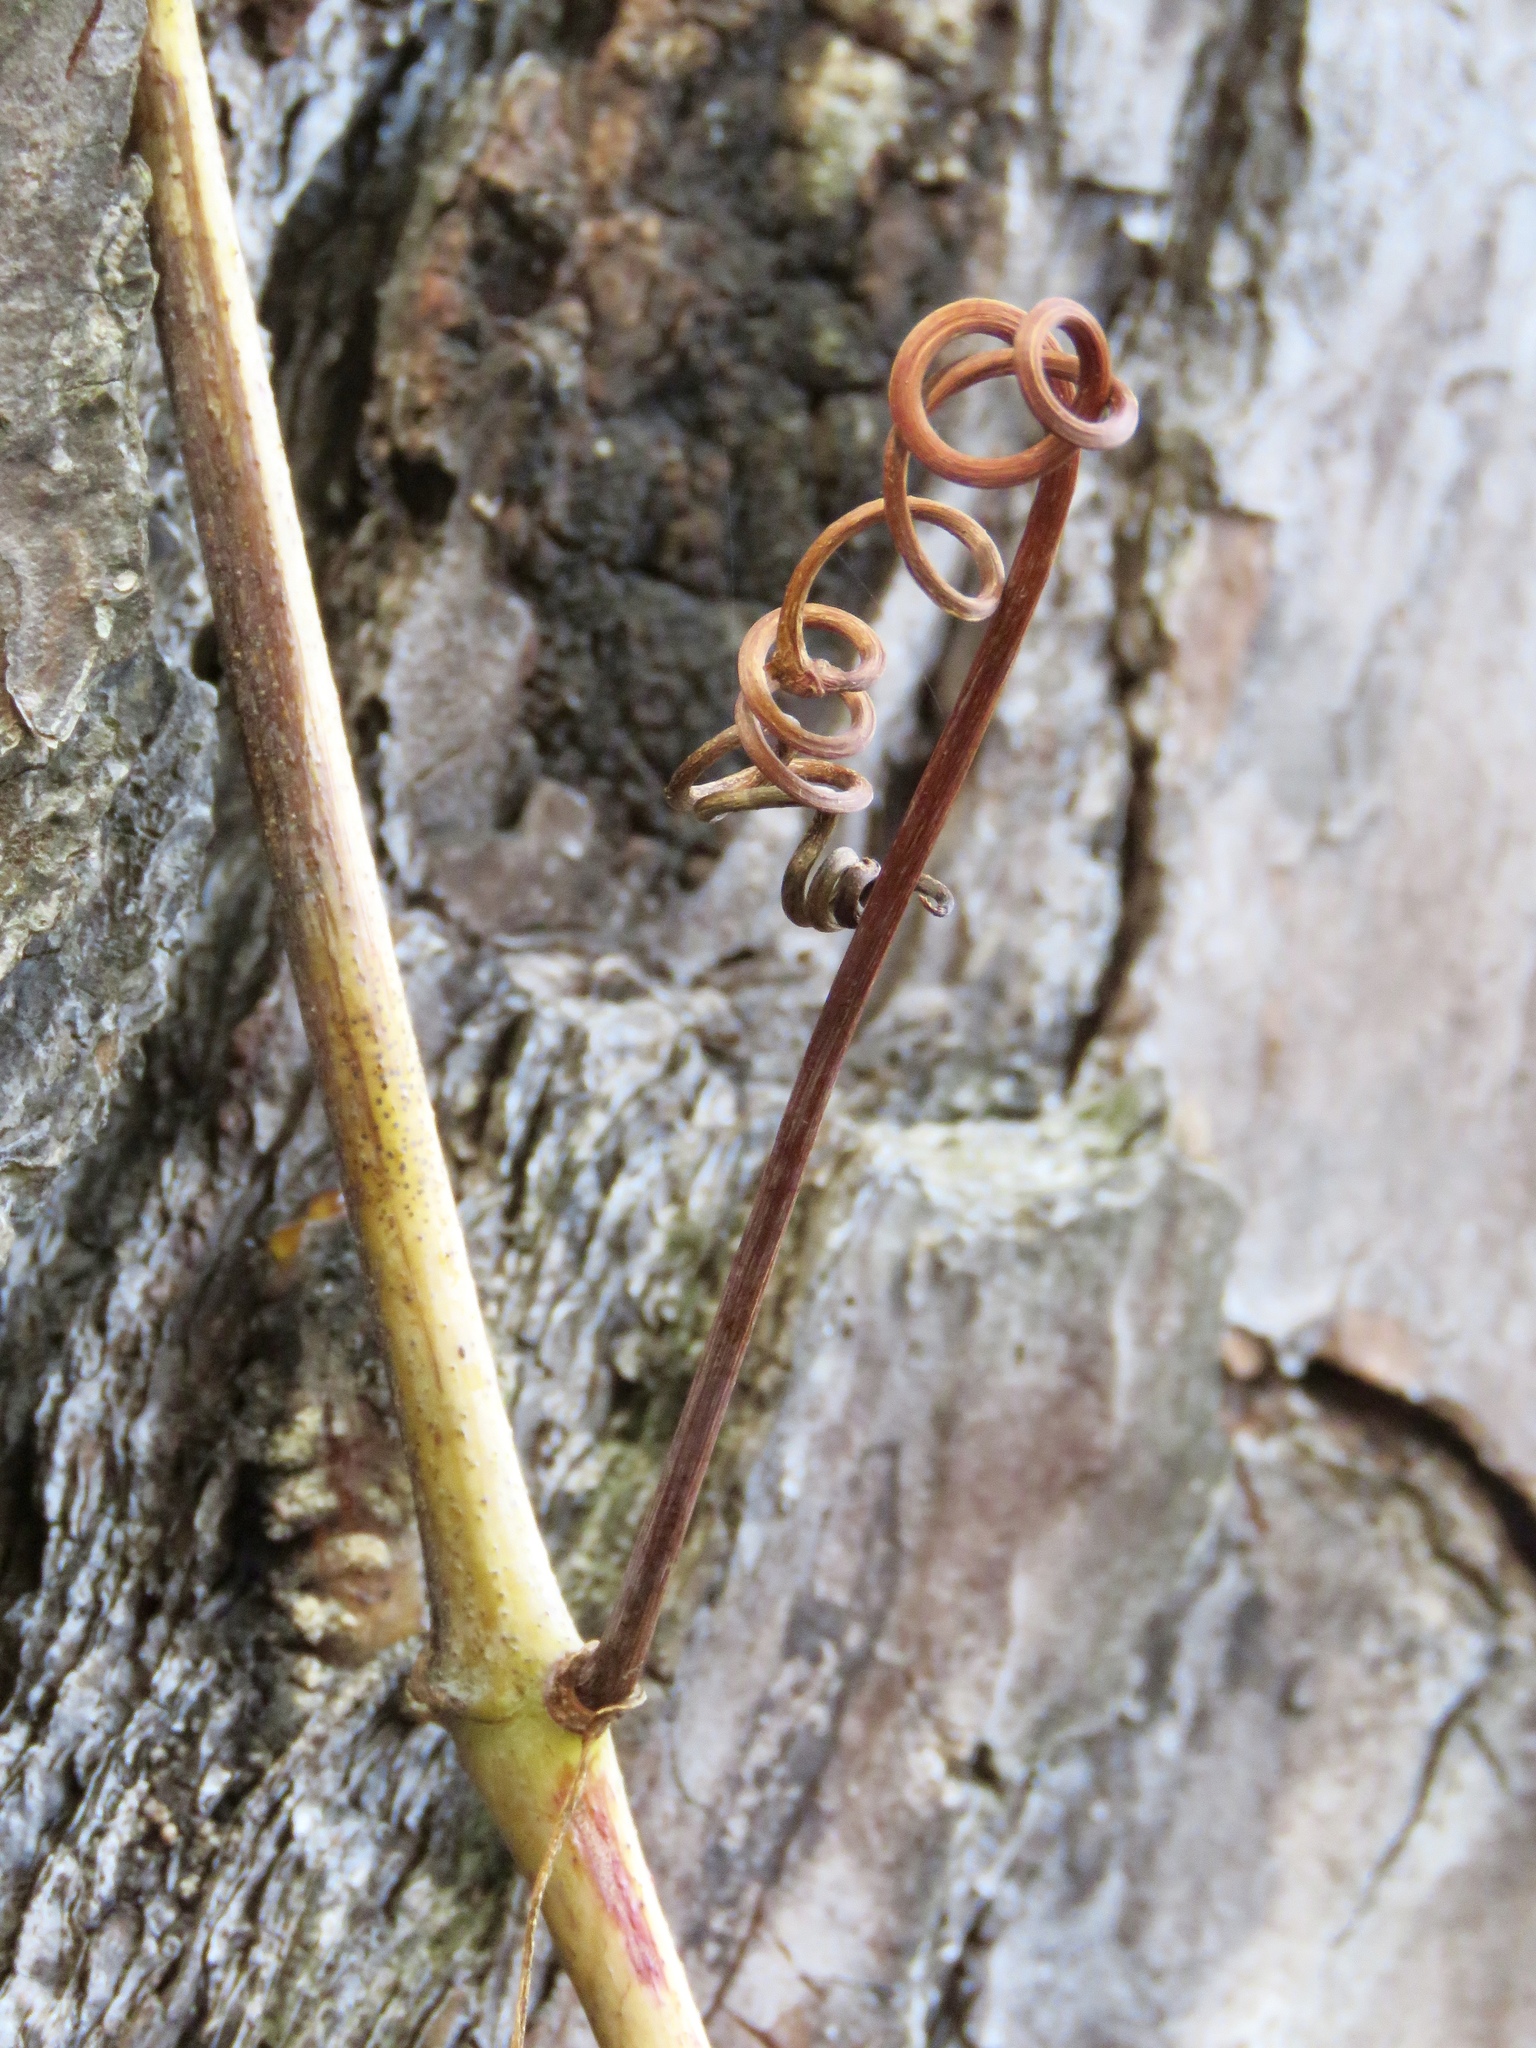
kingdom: Plantae
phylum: Tracheophyta
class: Magnoliopsida
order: Vitales
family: Vitaceae
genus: Vitis
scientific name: Vitis cinerea
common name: Ashy grape
